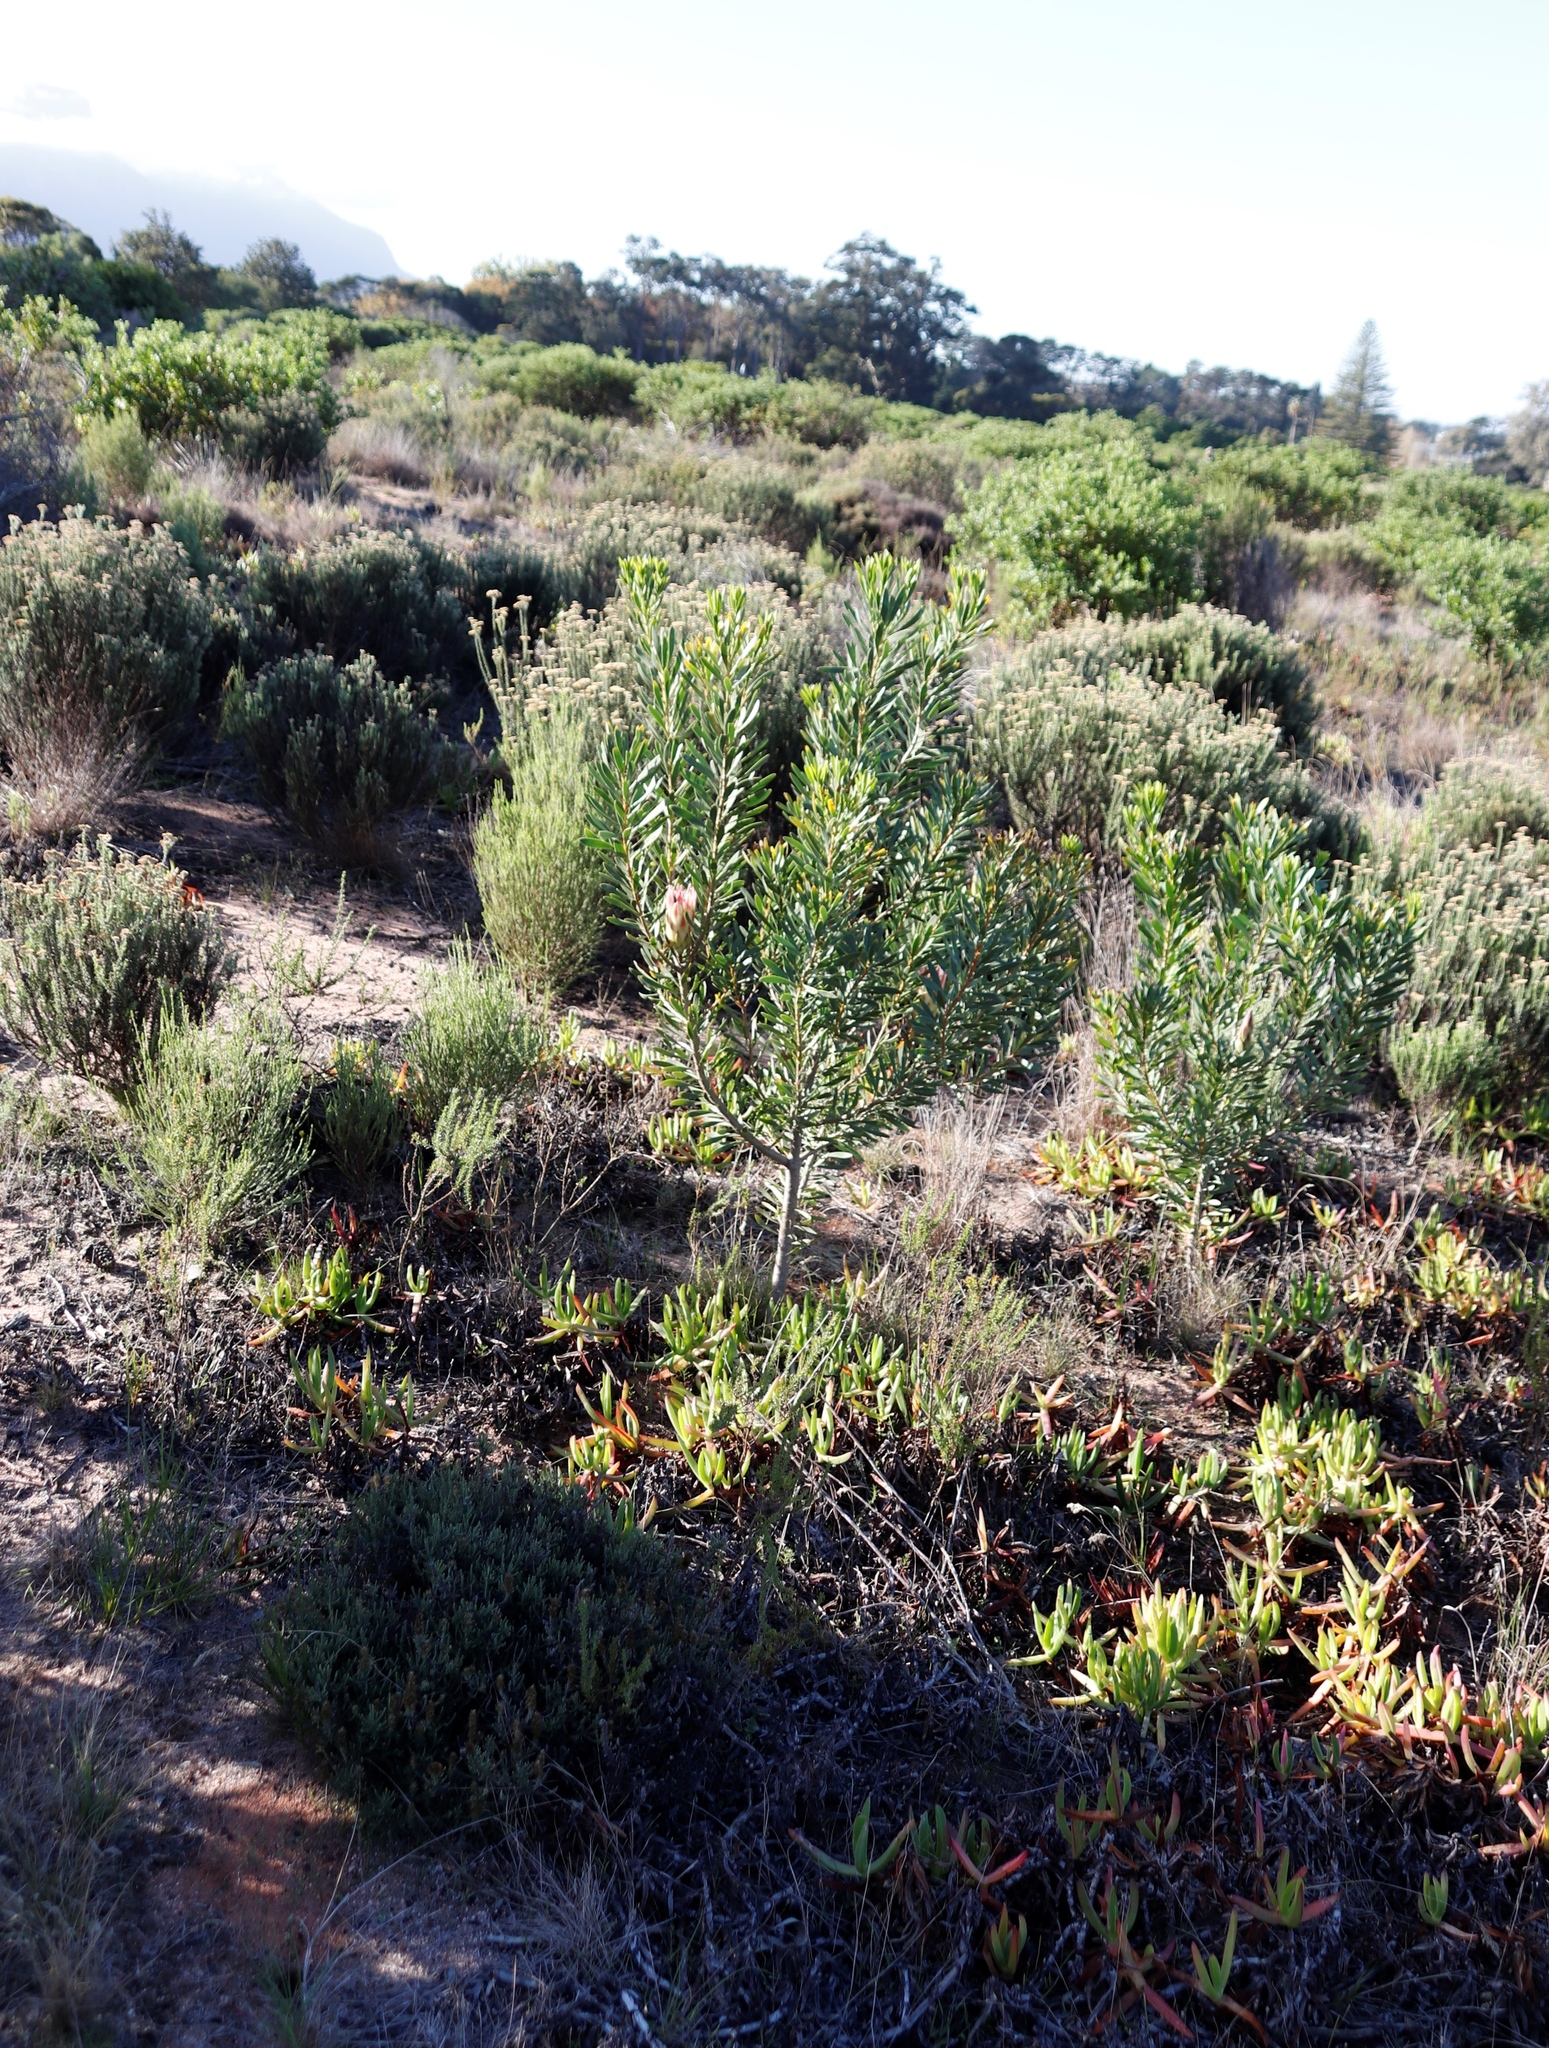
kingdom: Plantae
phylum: Tracheophyta
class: Magnoliopsida
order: Proteales
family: Proteaceae
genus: Protea
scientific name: Protea repens
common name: Sugarbush
